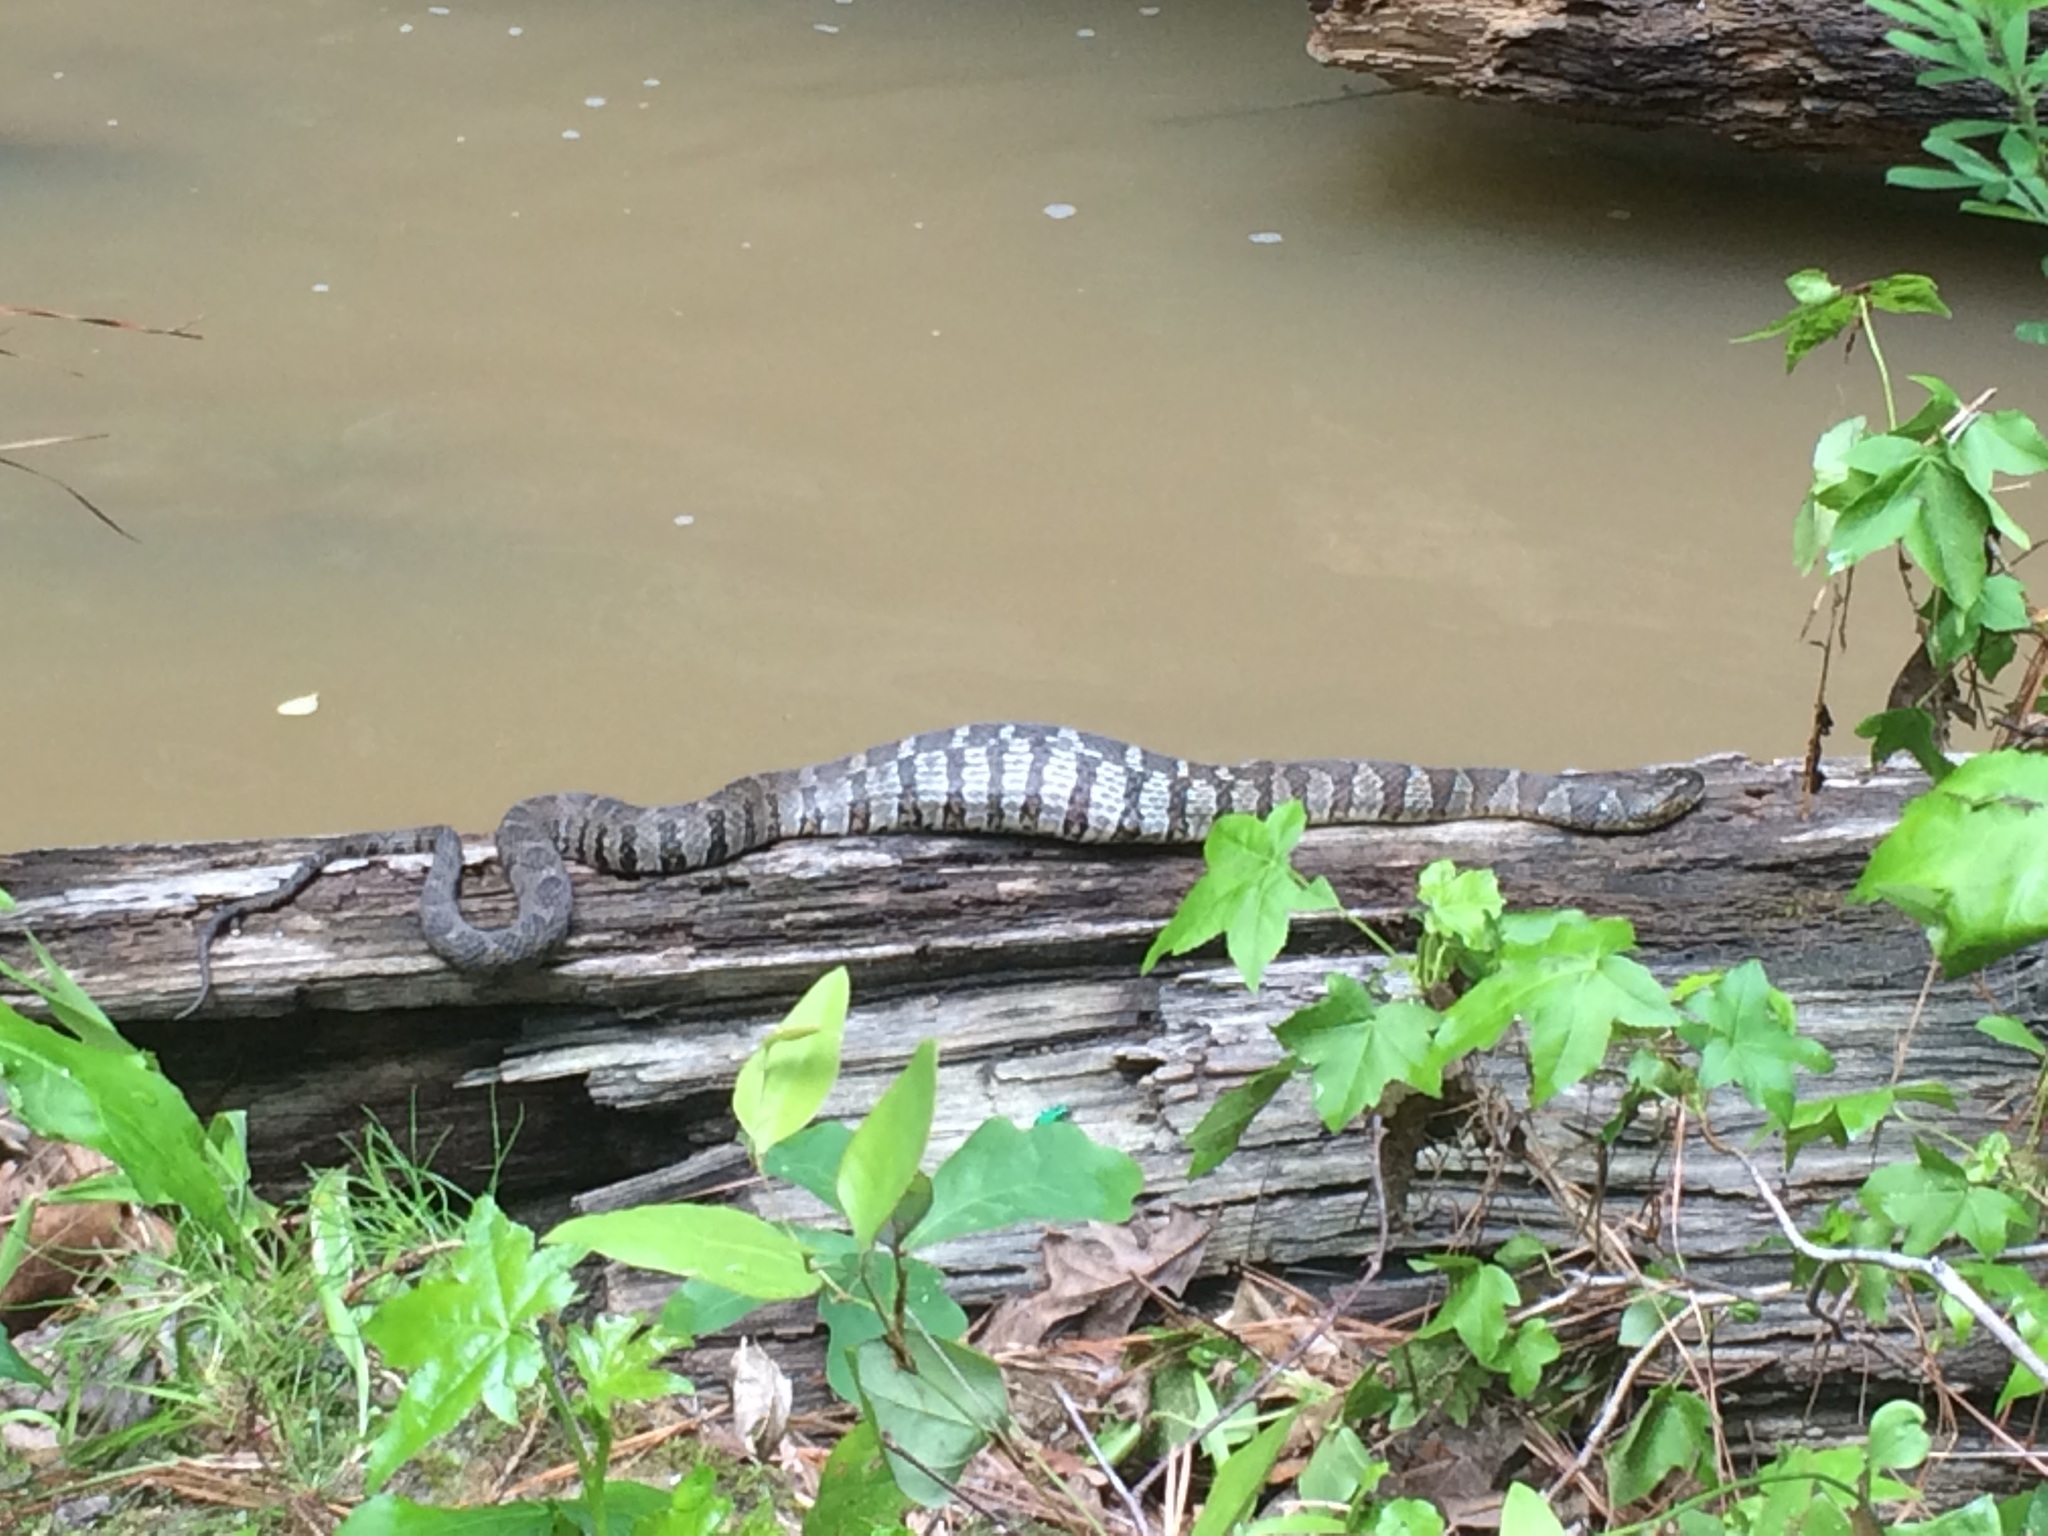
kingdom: Animalia
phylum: Chordata
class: Squamata
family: Colubridae
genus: Nerodia
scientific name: Nerodia sipedon
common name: Northern water snake
